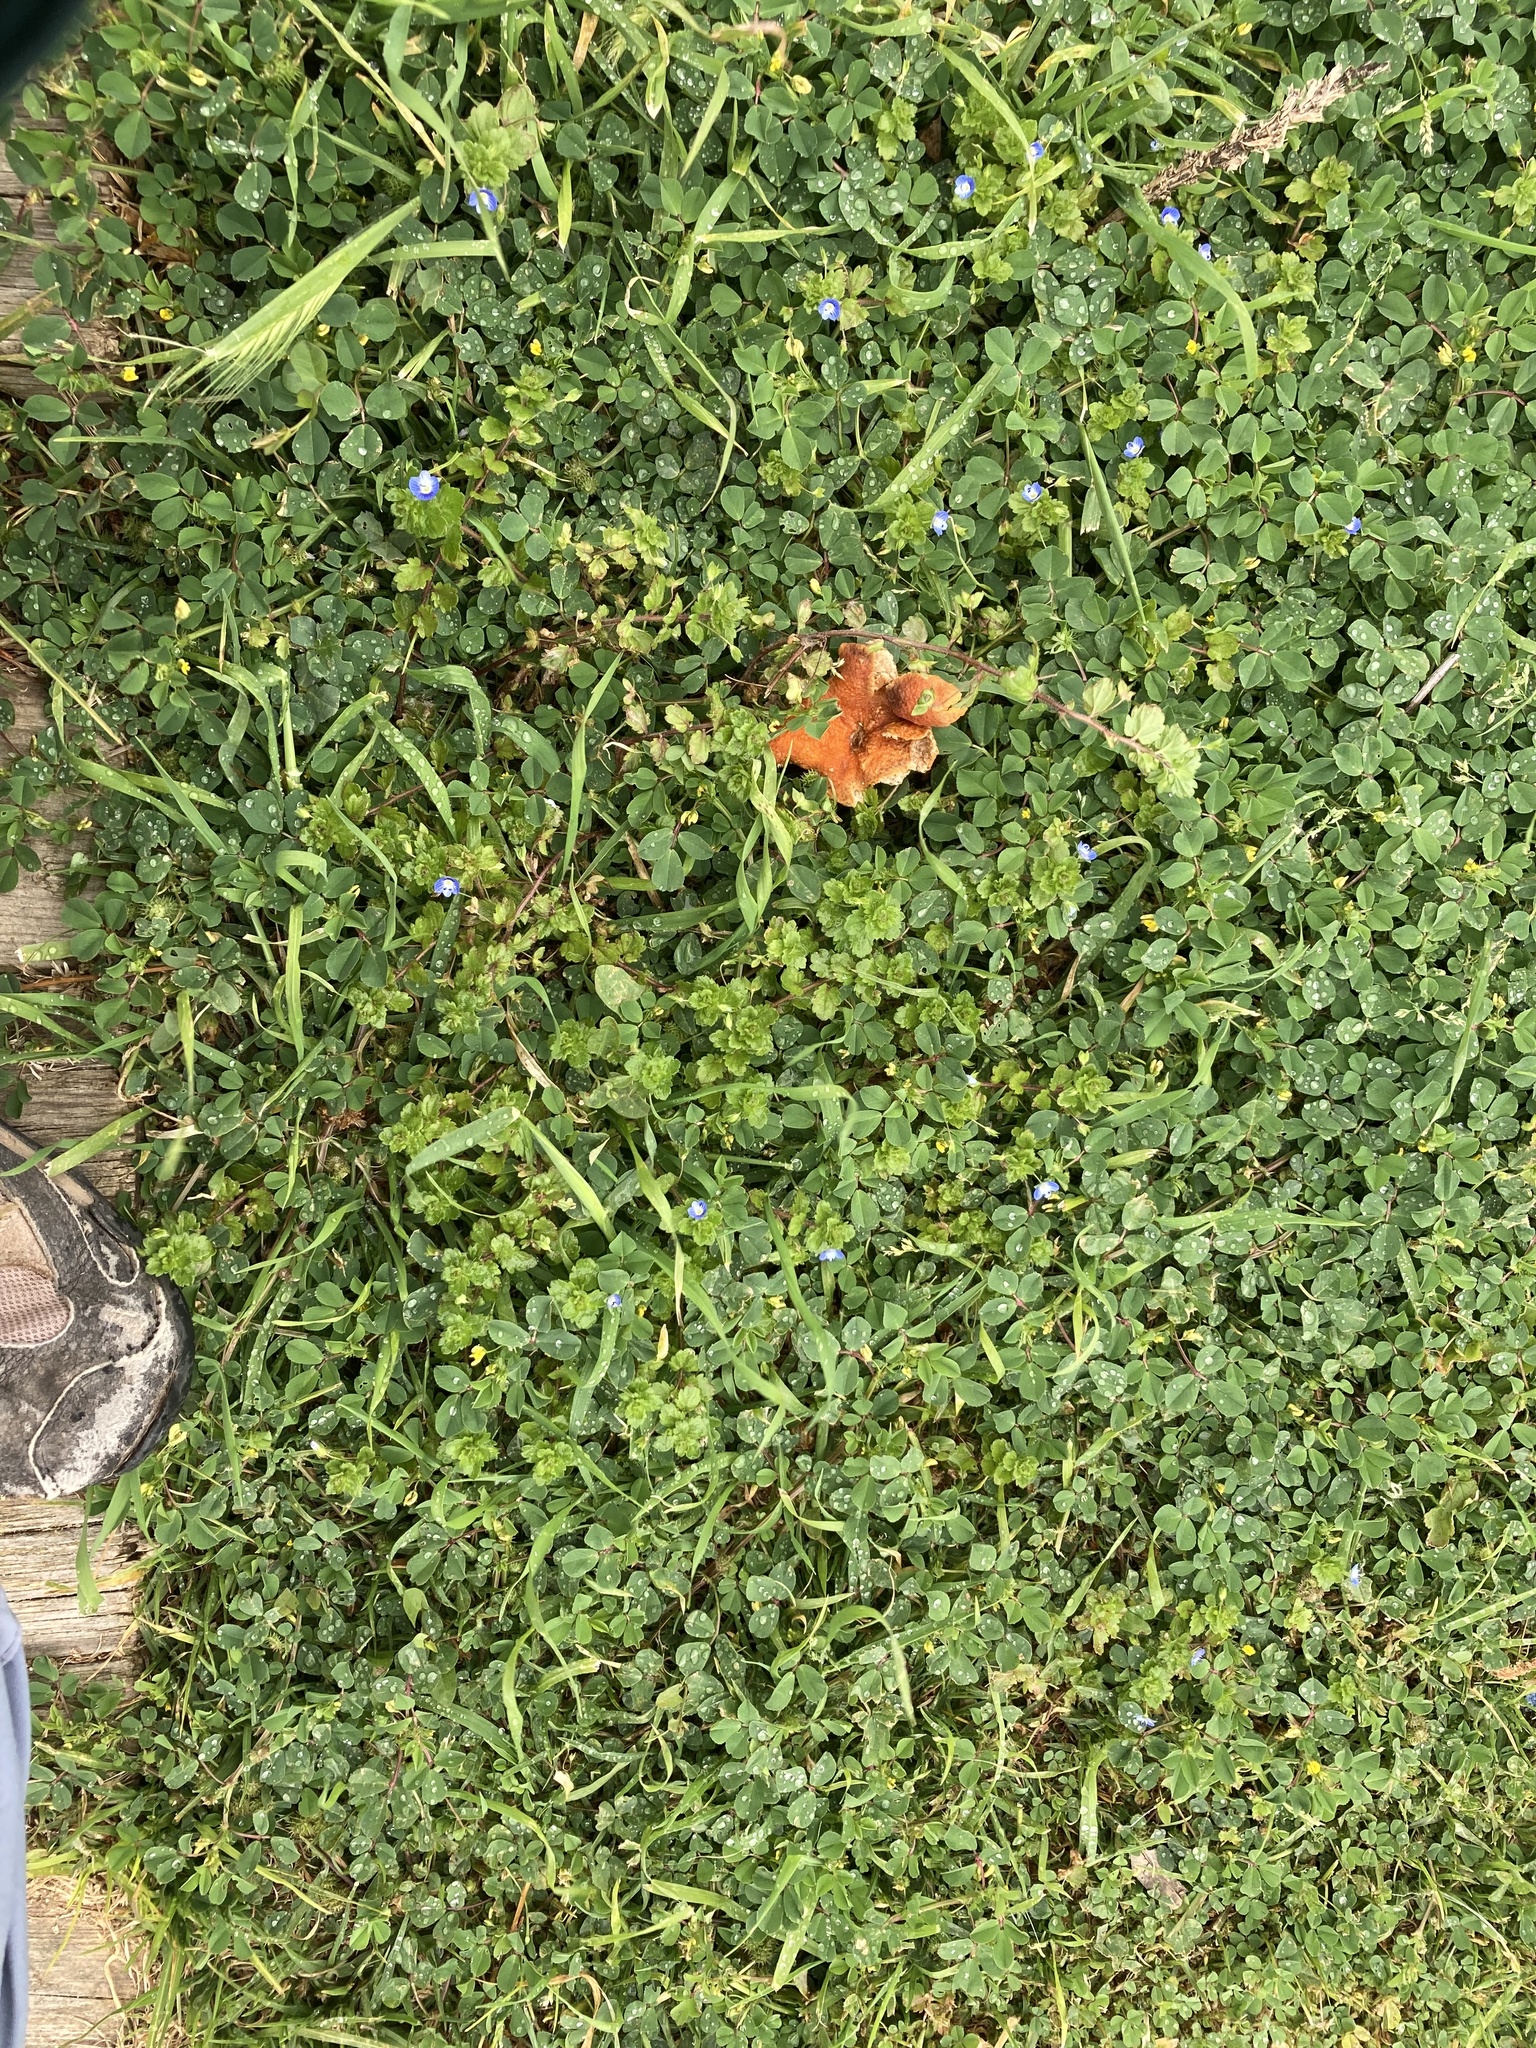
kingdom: Plantae
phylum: Tracheophyta
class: Magnoliopsida
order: Lamiales
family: Plantaginaceae
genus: Veronica
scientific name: Veronica persica
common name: Common field-speedwell
